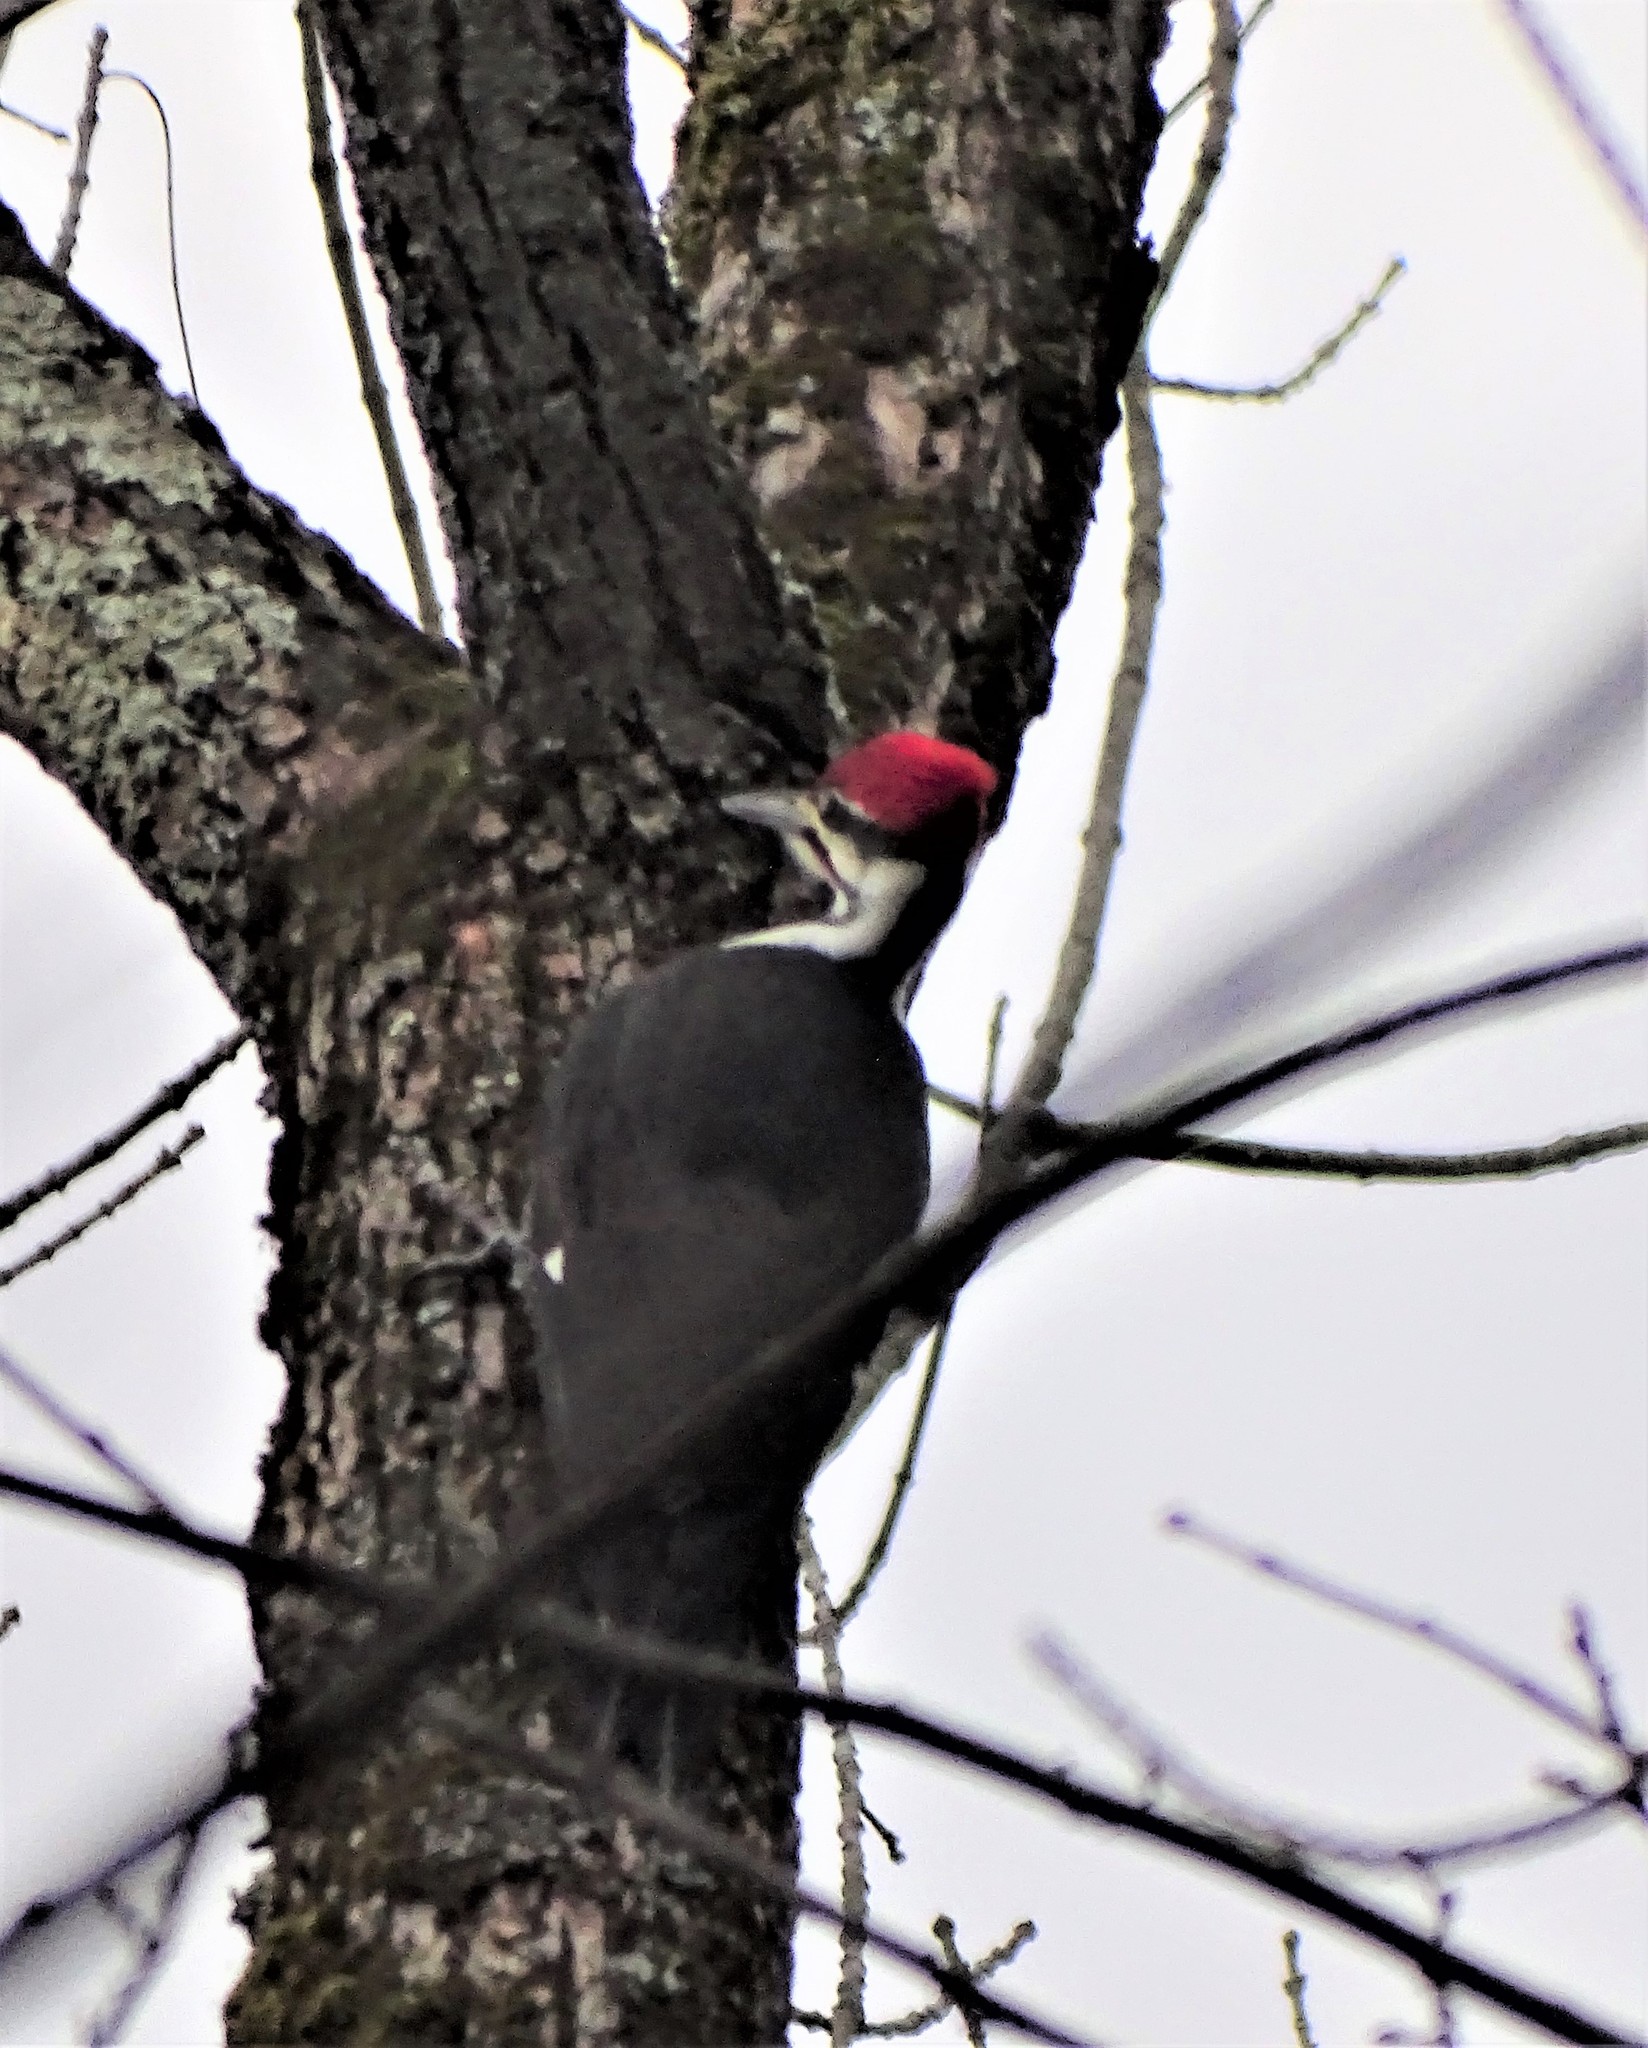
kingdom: Animalia
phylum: Chordata
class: Aves
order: Piciformes
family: Picidae
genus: Dryocopus
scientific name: Dryocopus pileatus
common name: Pileated woodpecker
